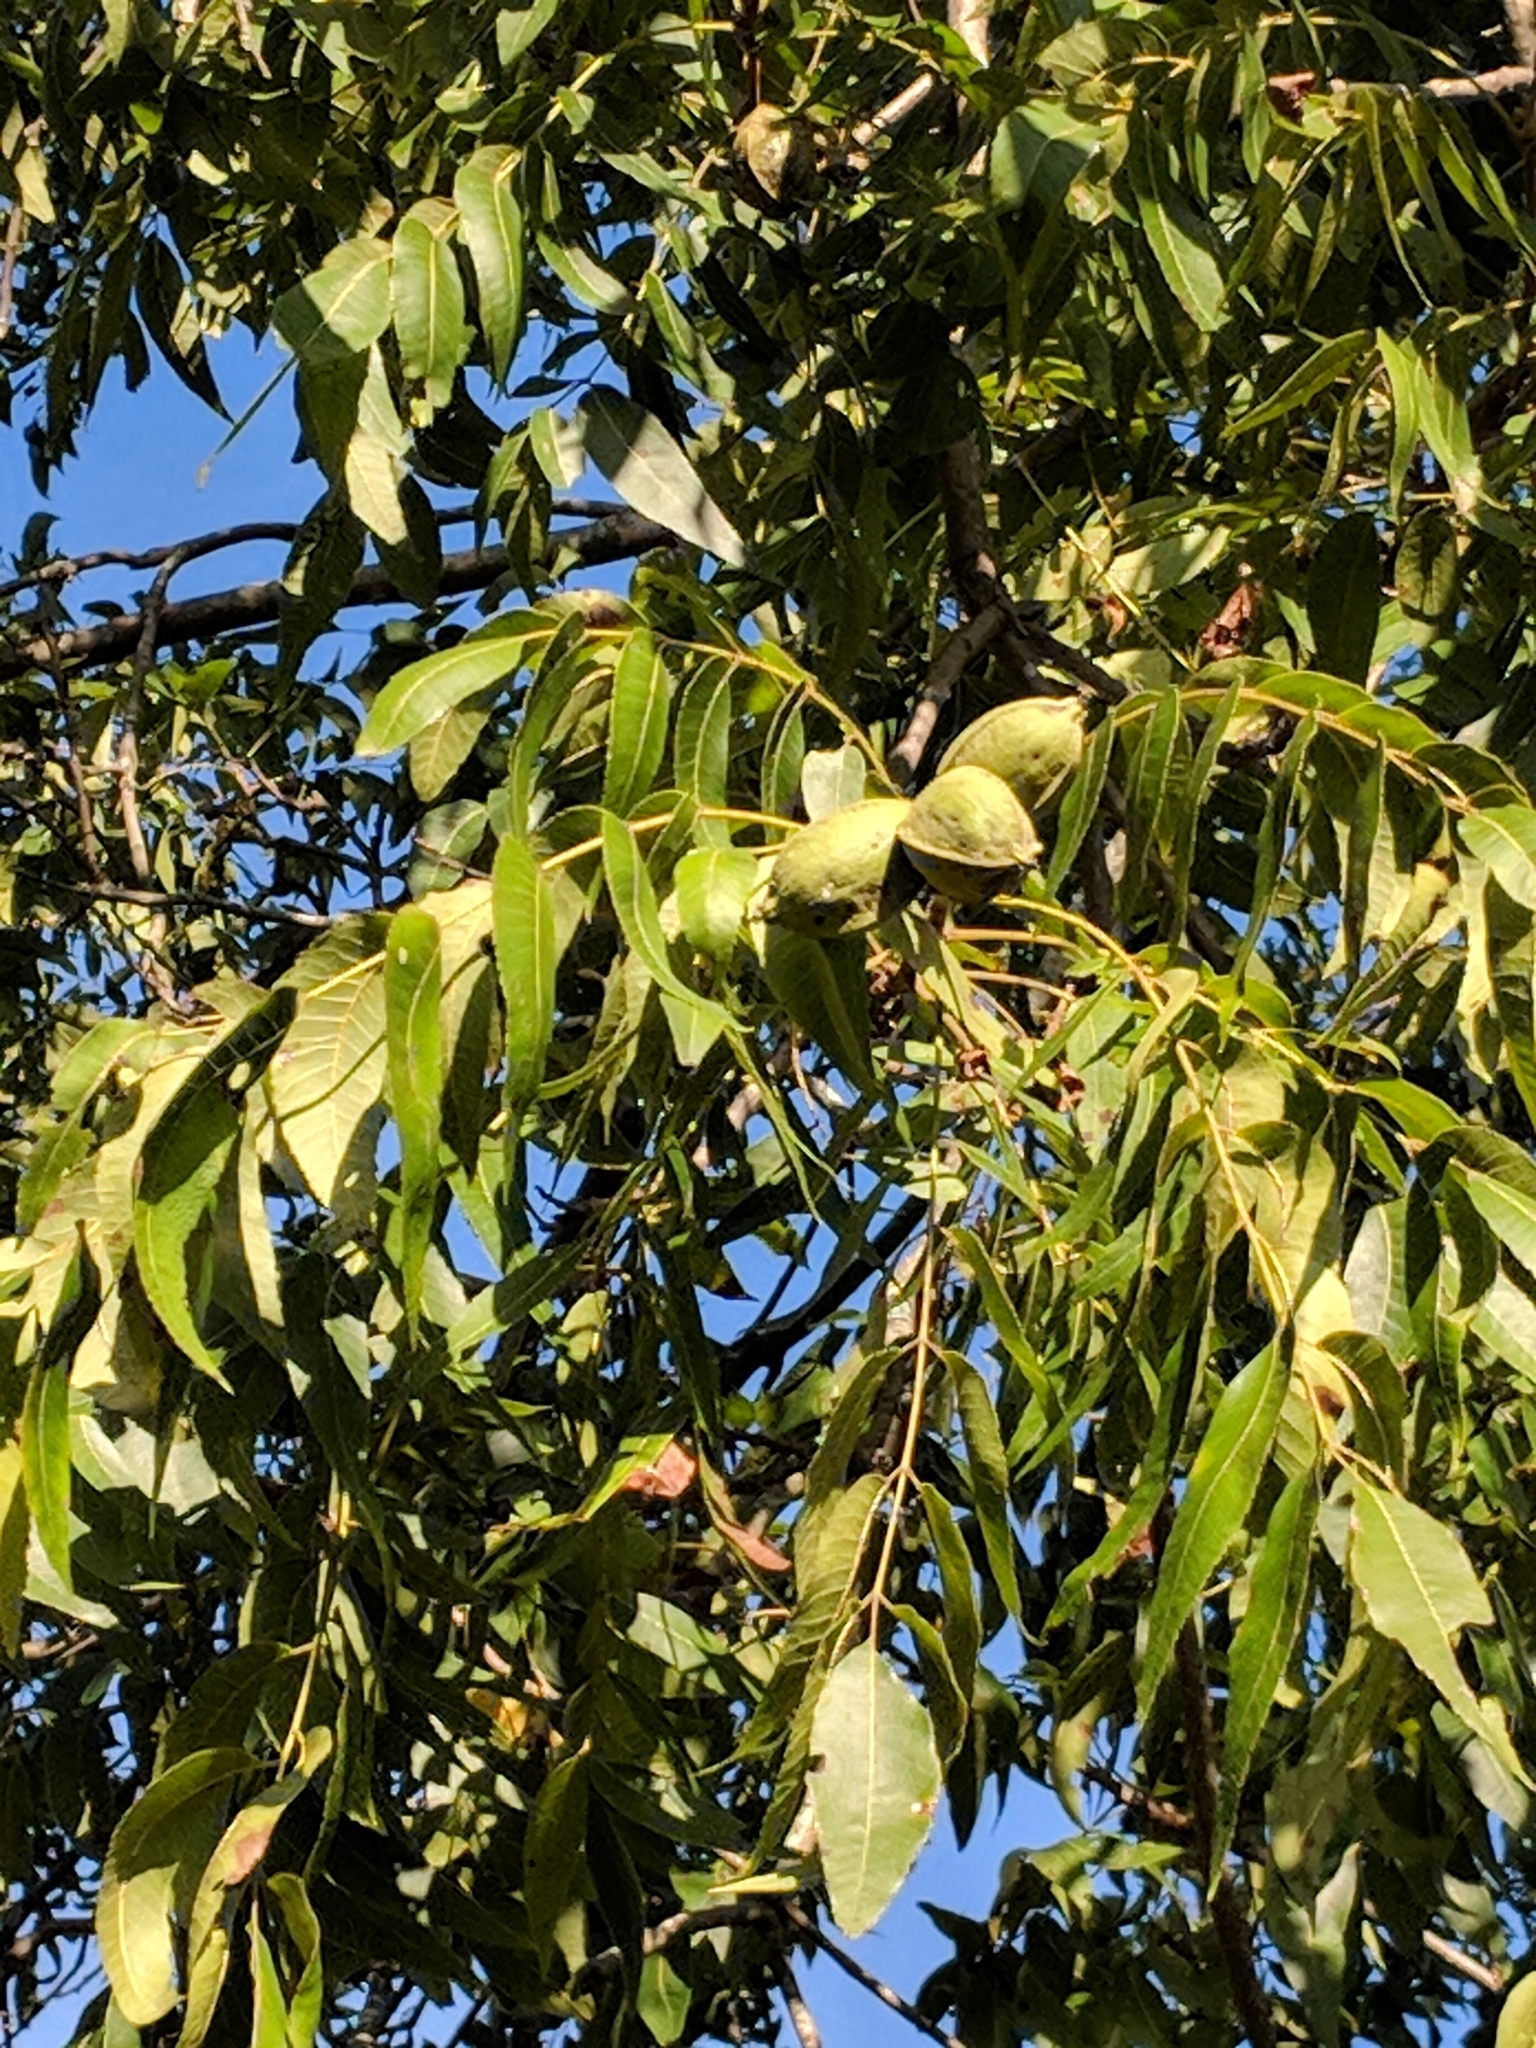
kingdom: Plantae
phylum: Tracheophyta
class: Magnoliopsida
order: Fagales
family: Juglandaceae
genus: Carya
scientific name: Carya illinoinensis
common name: Pecan
